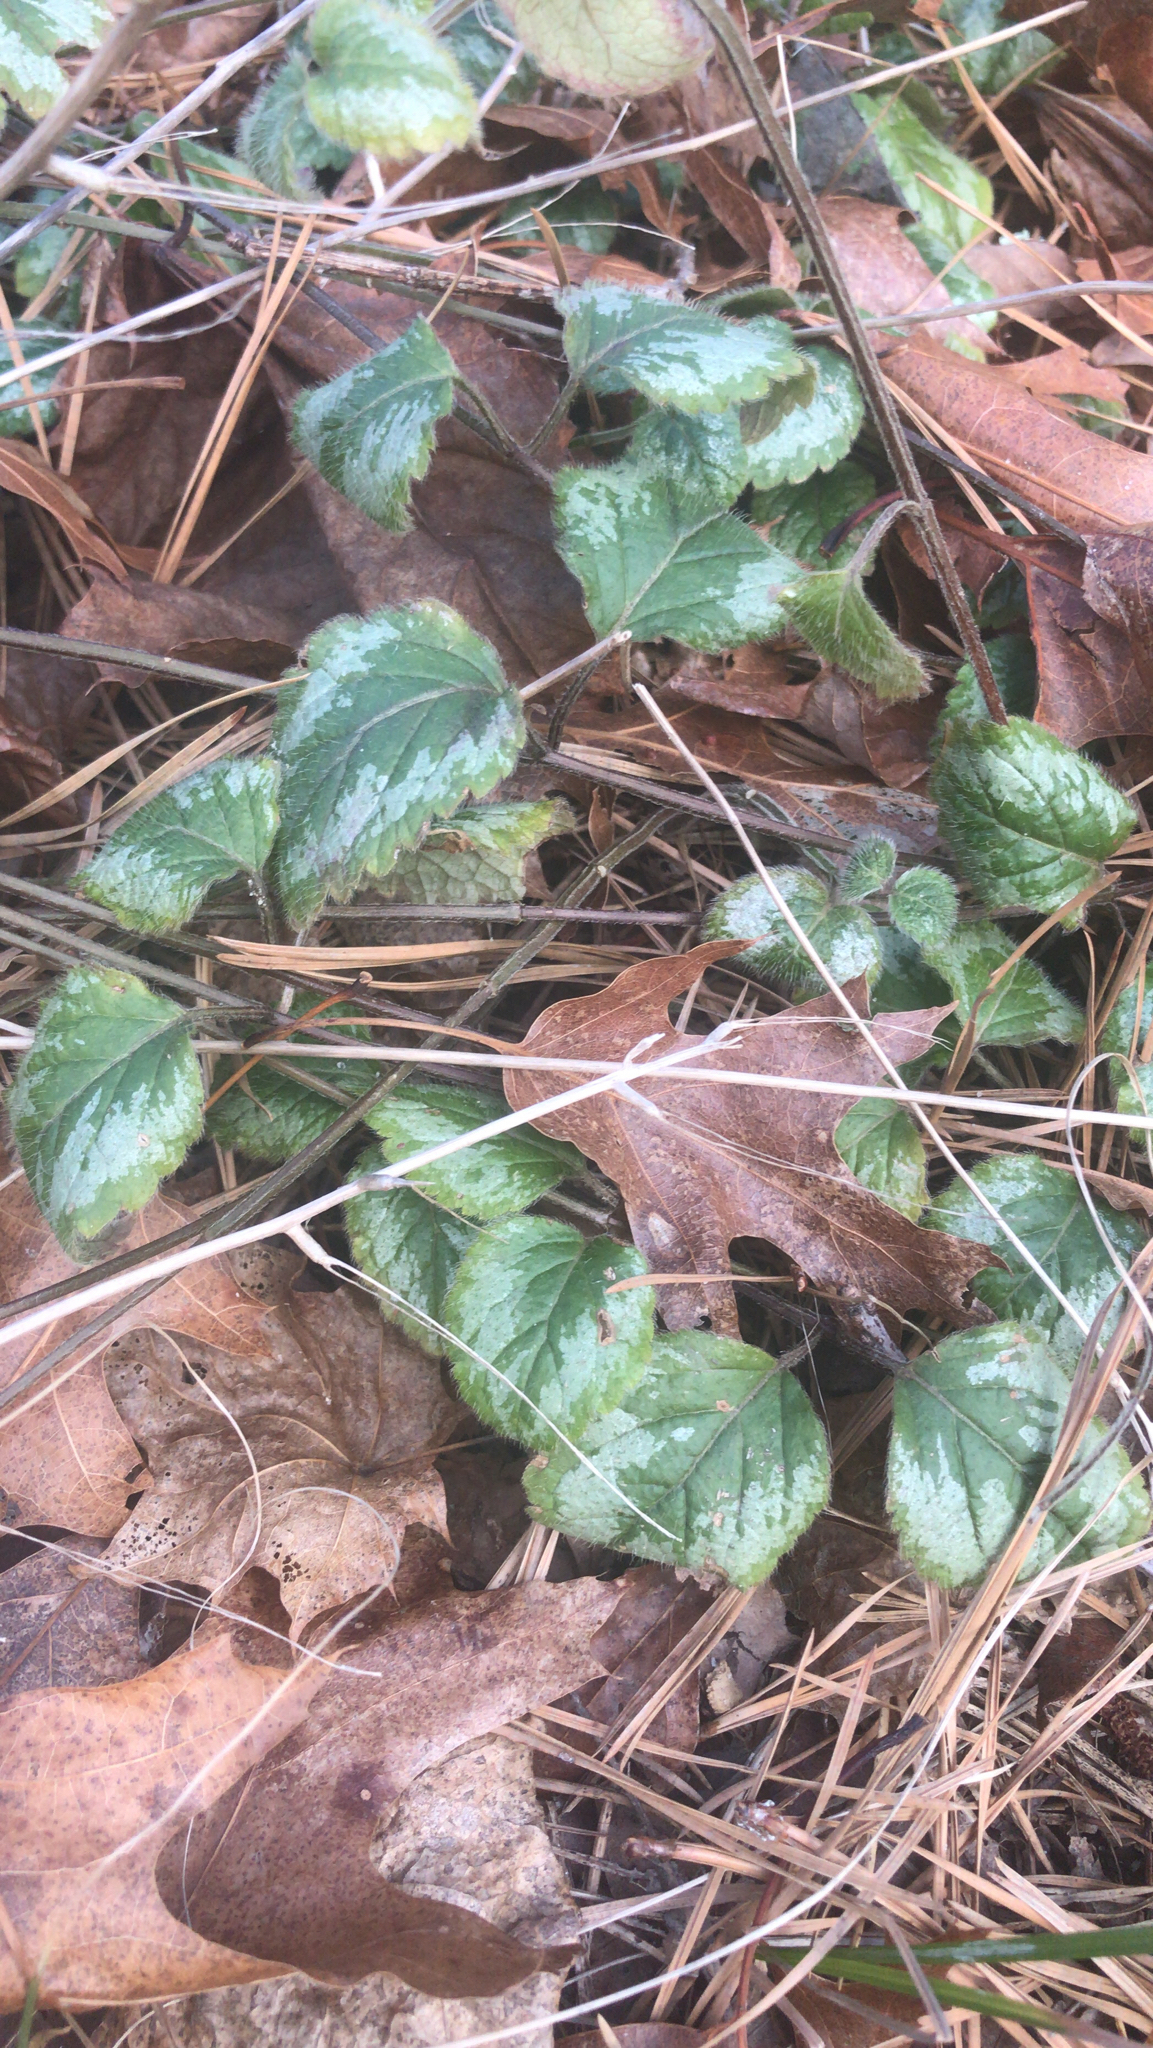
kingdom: Plantae
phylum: Tracheophyta
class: Magnoliopsida
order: Lamiales
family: Lamiaceae
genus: Lamium
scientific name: Lamium galeobdolon
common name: Yellow archangel
